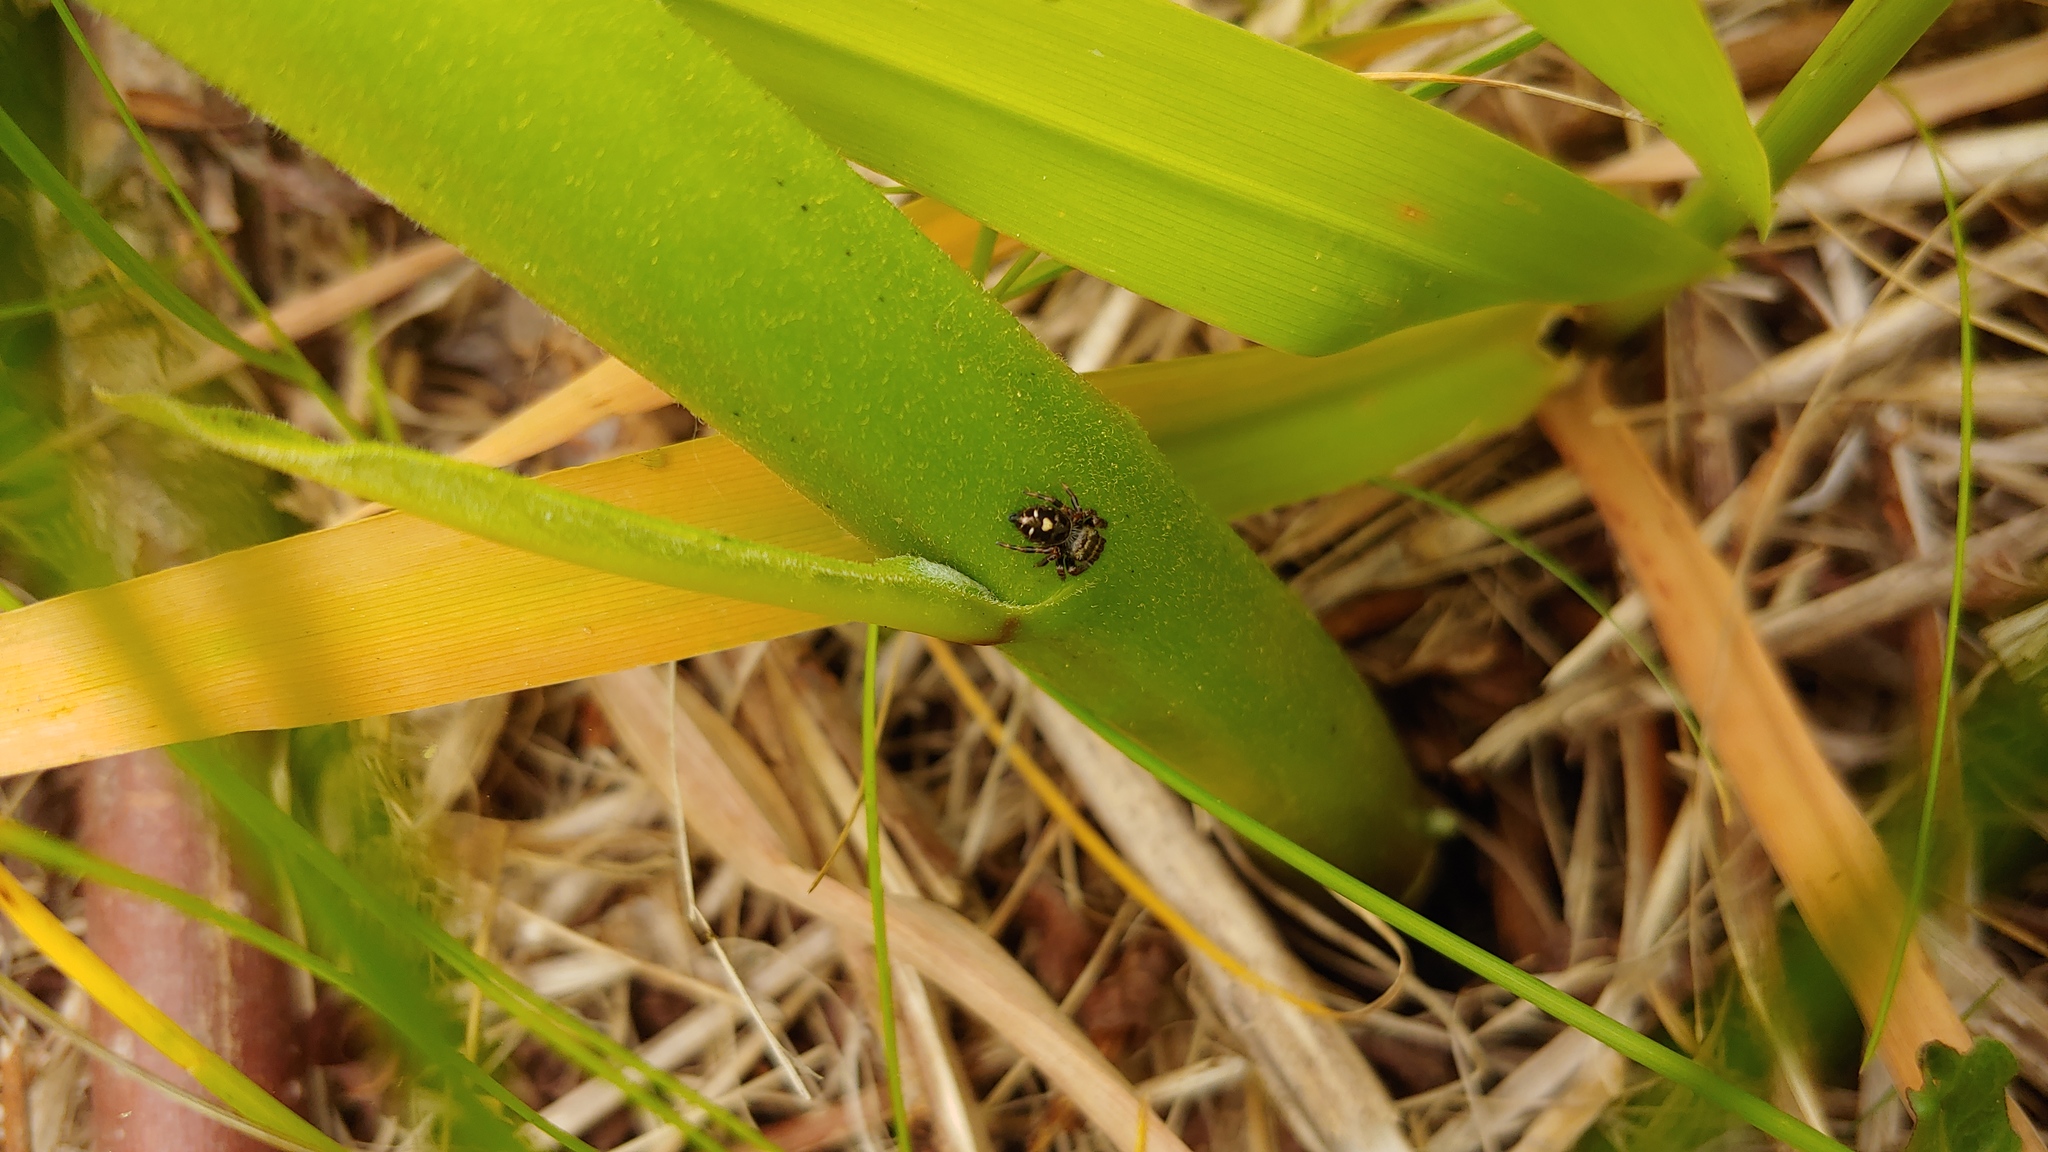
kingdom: Animalia
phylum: Arthropoda
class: Arachnida
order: Araneae
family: Salticidae
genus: Phidippus
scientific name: Phidippus audax
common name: Bold jumper
